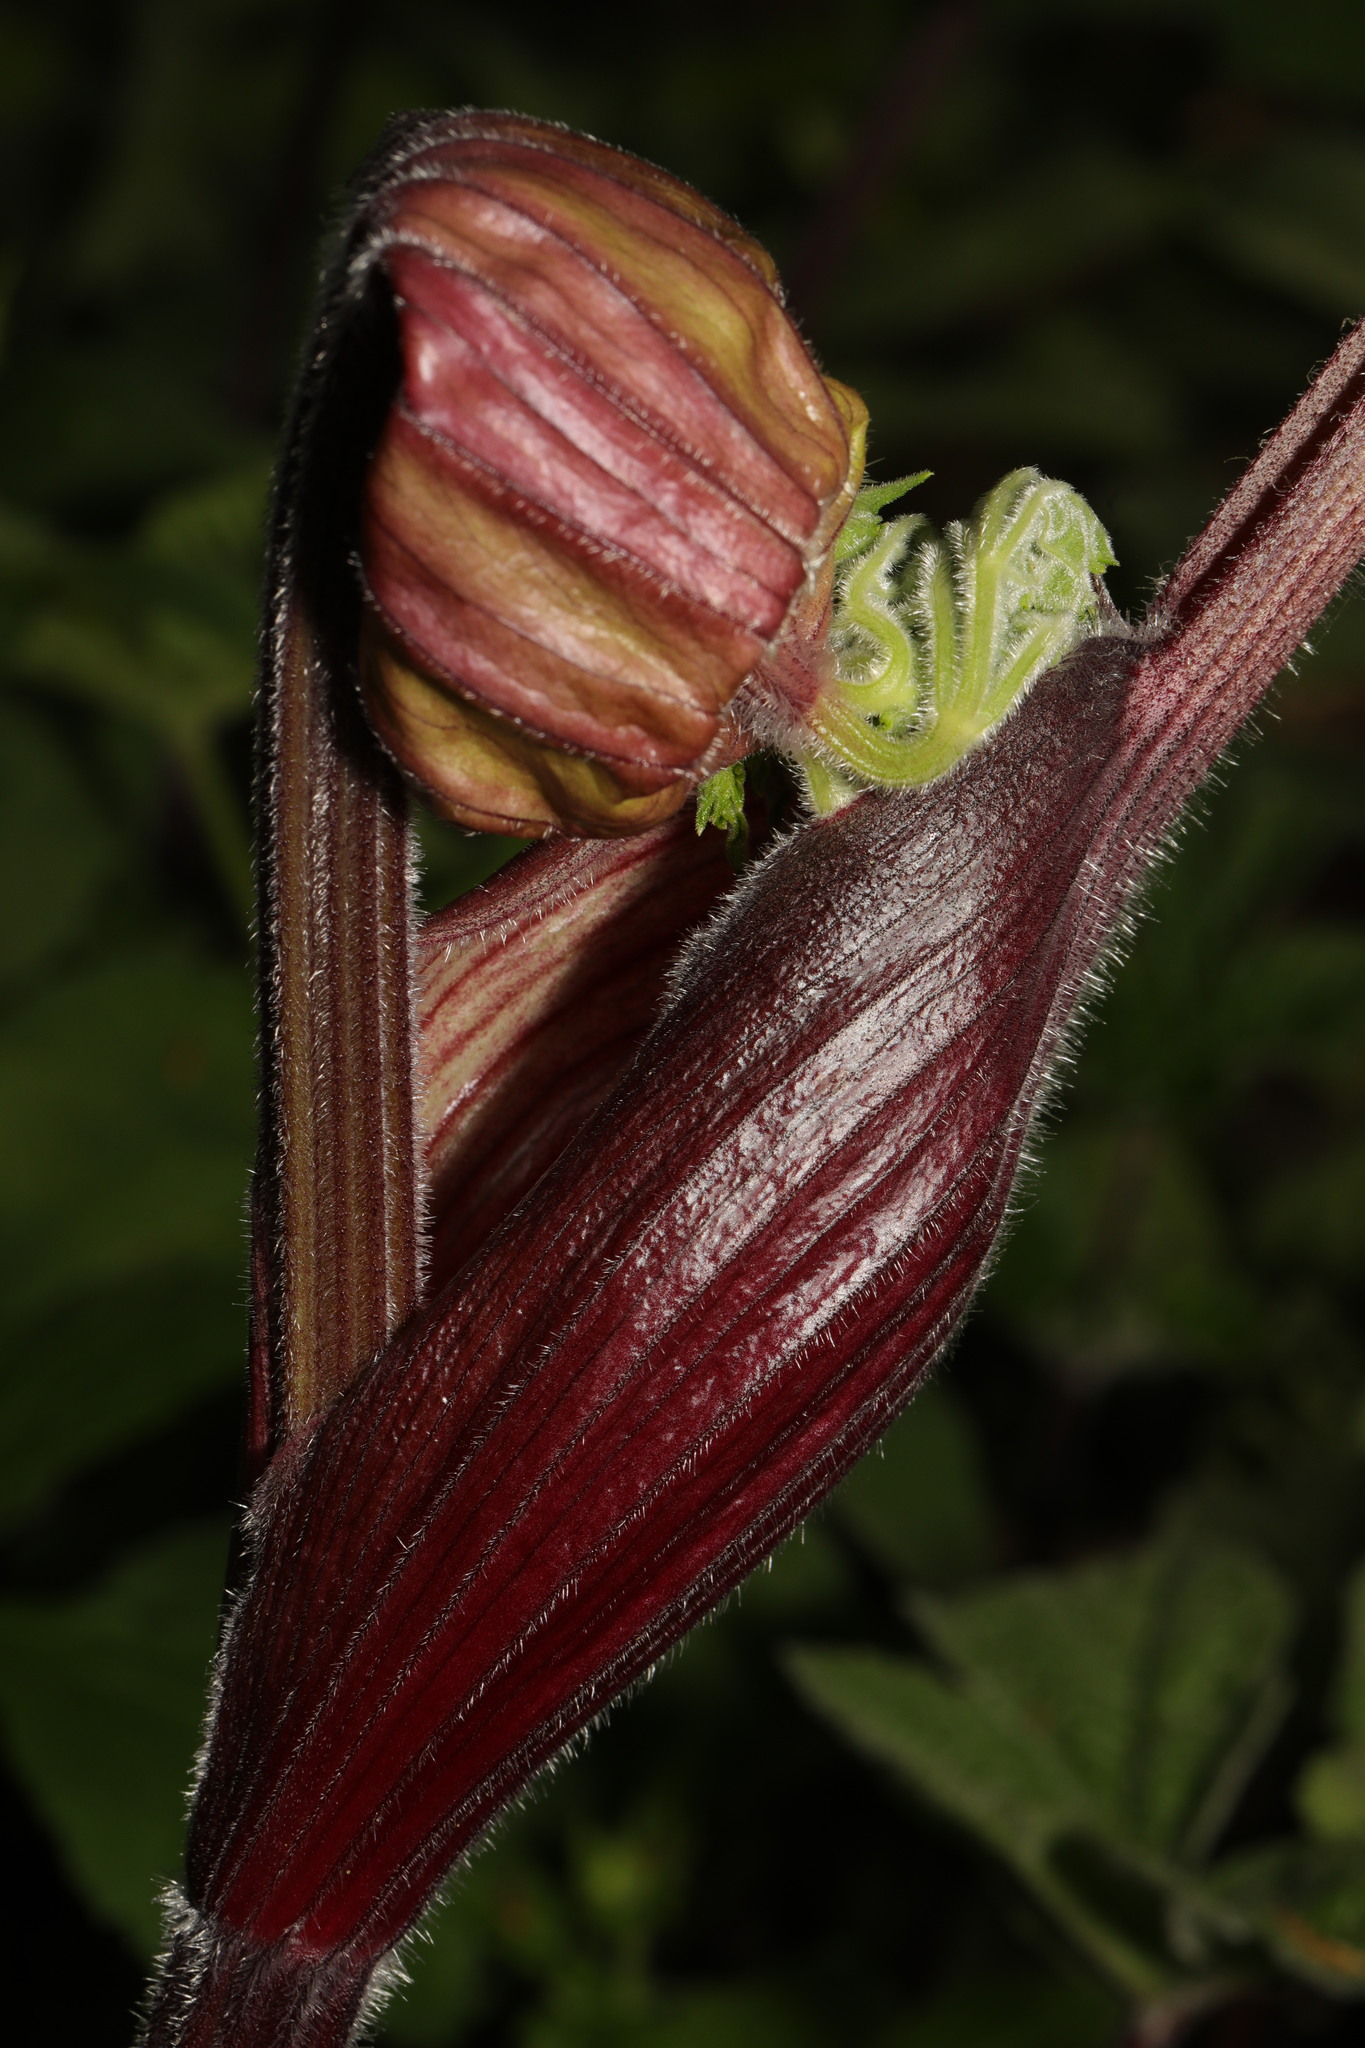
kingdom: Plantae
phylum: Tracheophyta
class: Magnoliopsida
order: Apiales
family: Apiaceae
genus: Heracleum
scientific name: Heracleum sphondylium
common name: Hogweed
